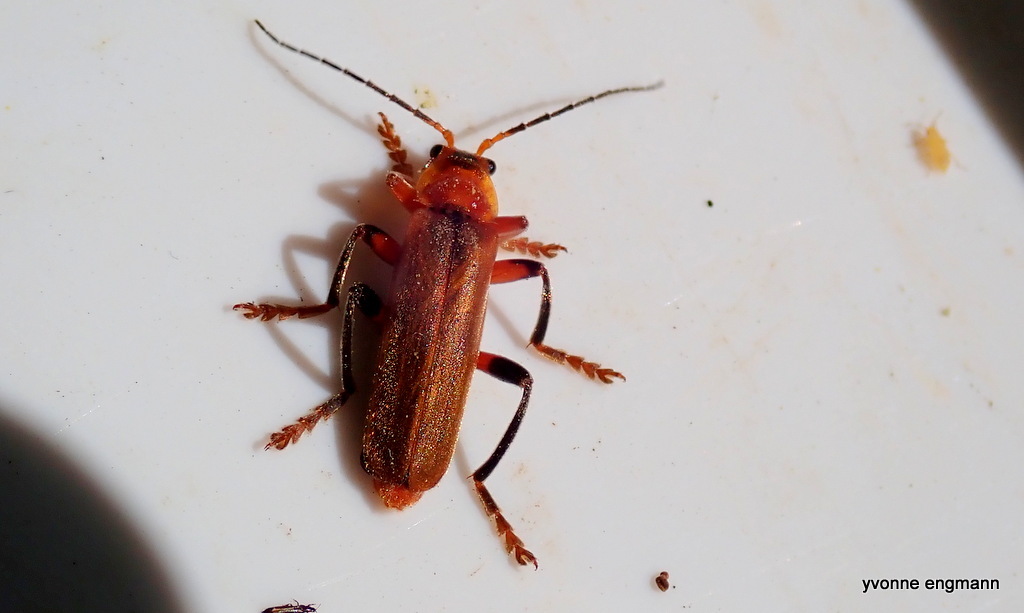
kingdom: Animalia
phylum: Arthropoda
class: Insecta
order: Coleoptera
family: Cantharidae
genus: Cantharis
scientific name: Cantharis livida
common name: Livid soldier beetle
